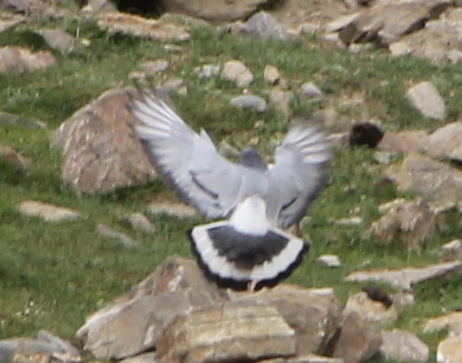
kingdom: Animalia
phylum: Chordata
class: Aves
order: Columbiformes
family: Columbidae
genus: Columba
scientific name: Columba rupestris
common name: Hill pigeon
